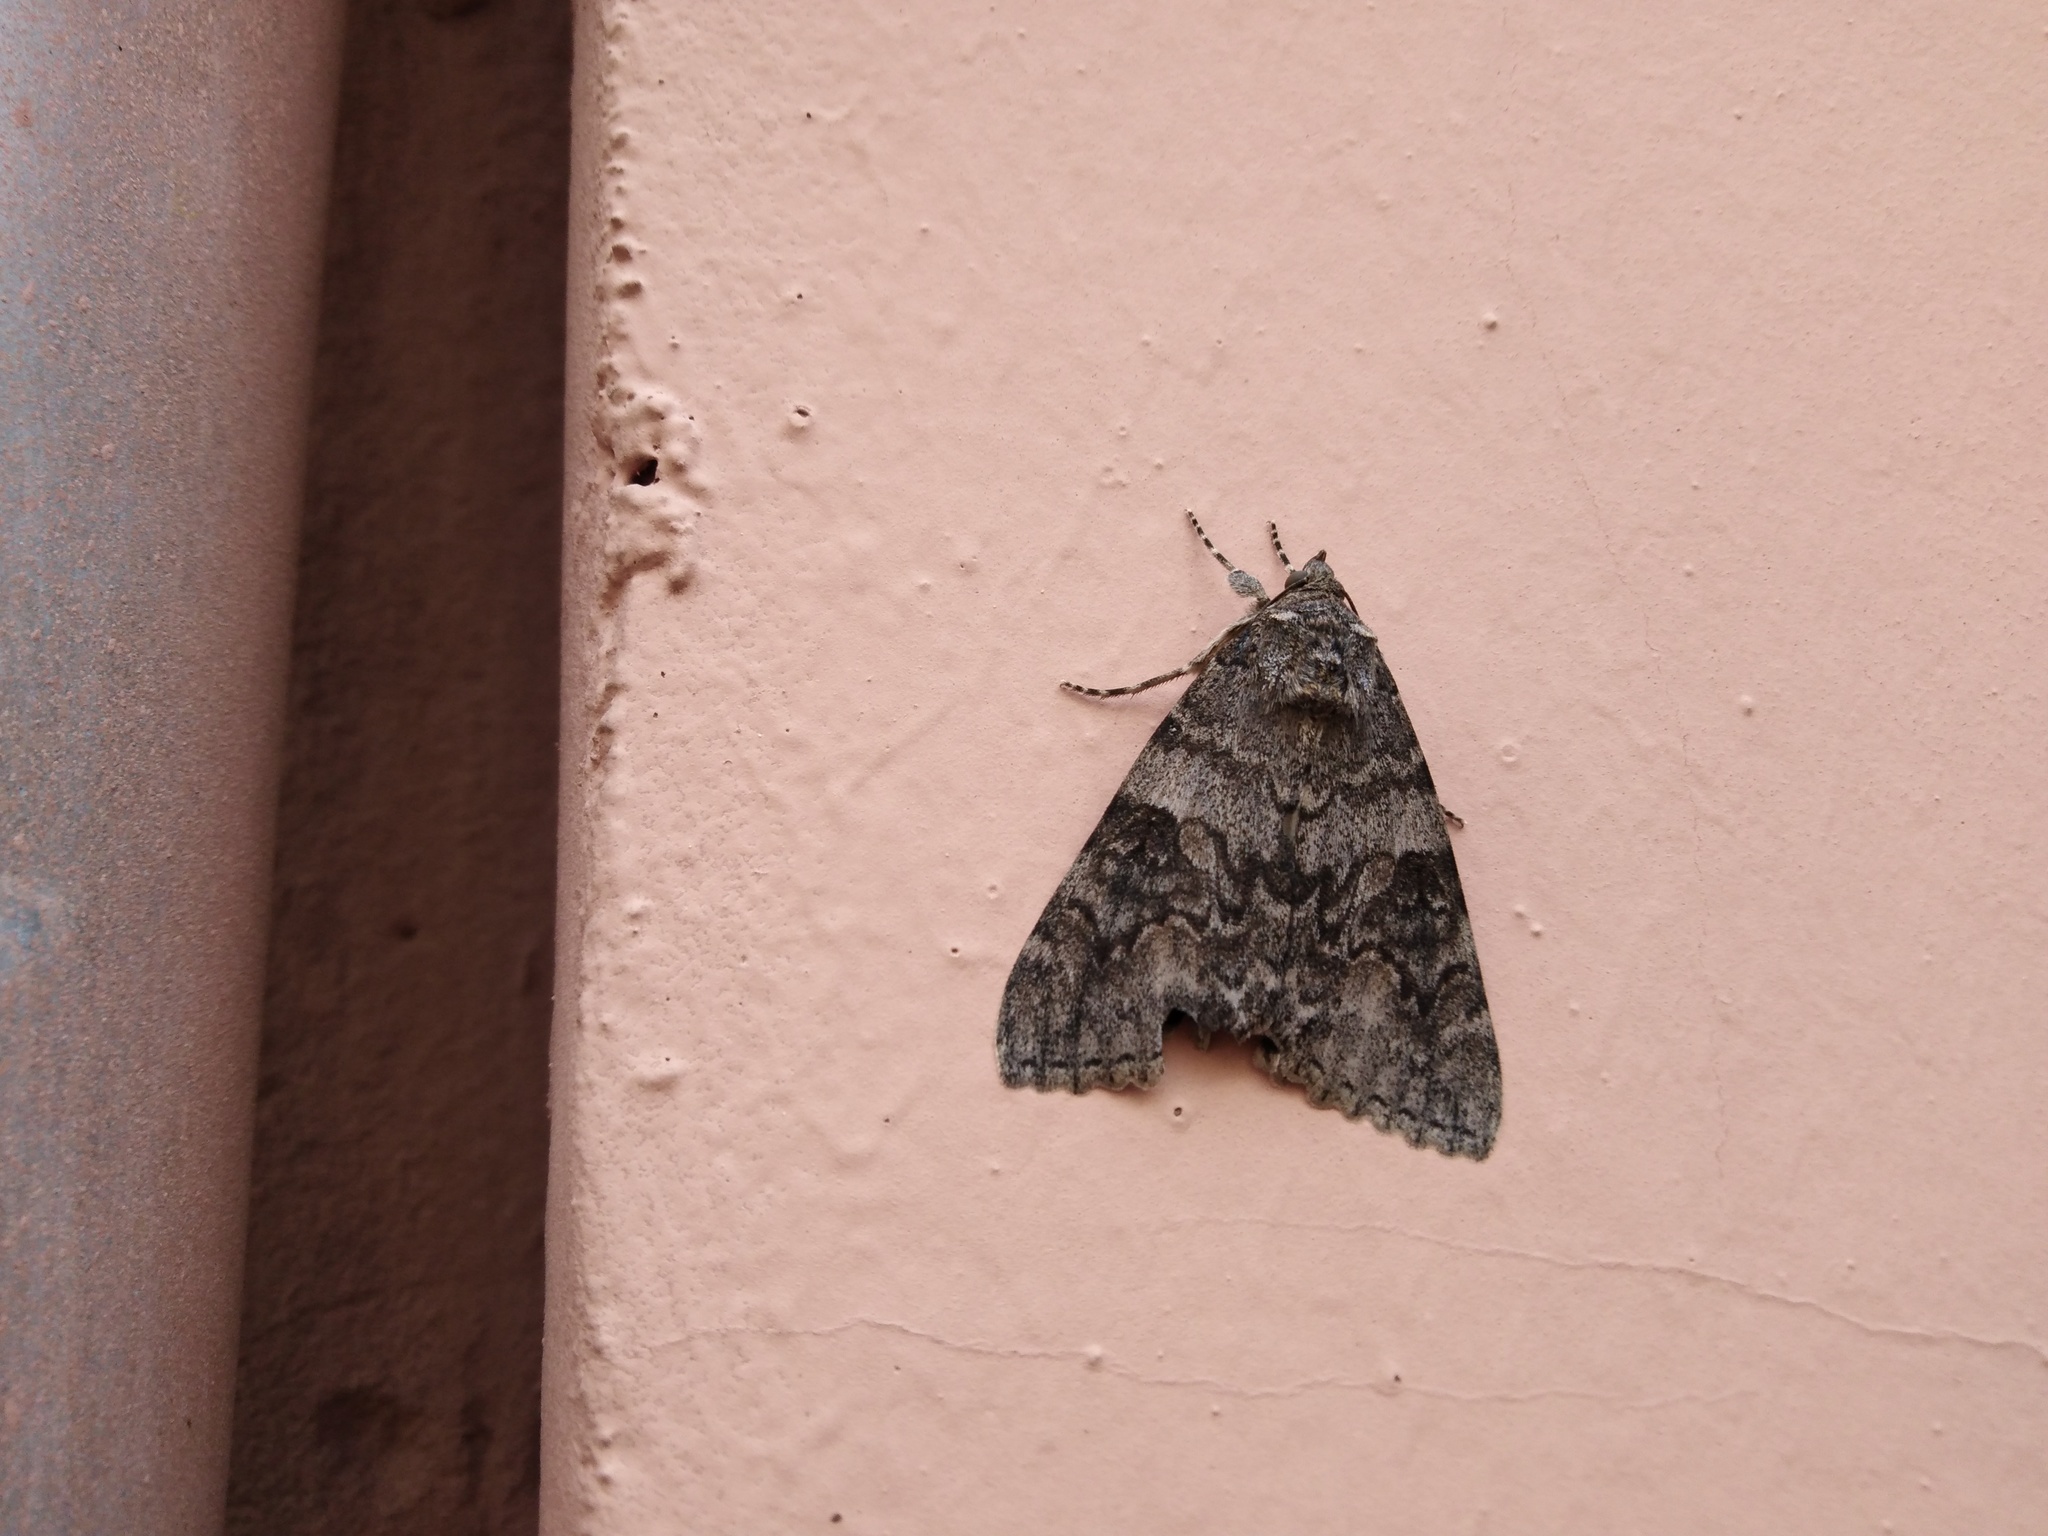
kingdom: Animalia
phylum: Arthropoda
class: Insecta
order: Lepidoptera
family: Erebidae
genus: Catocala
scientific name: Catocala nupta
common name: Red underwing
